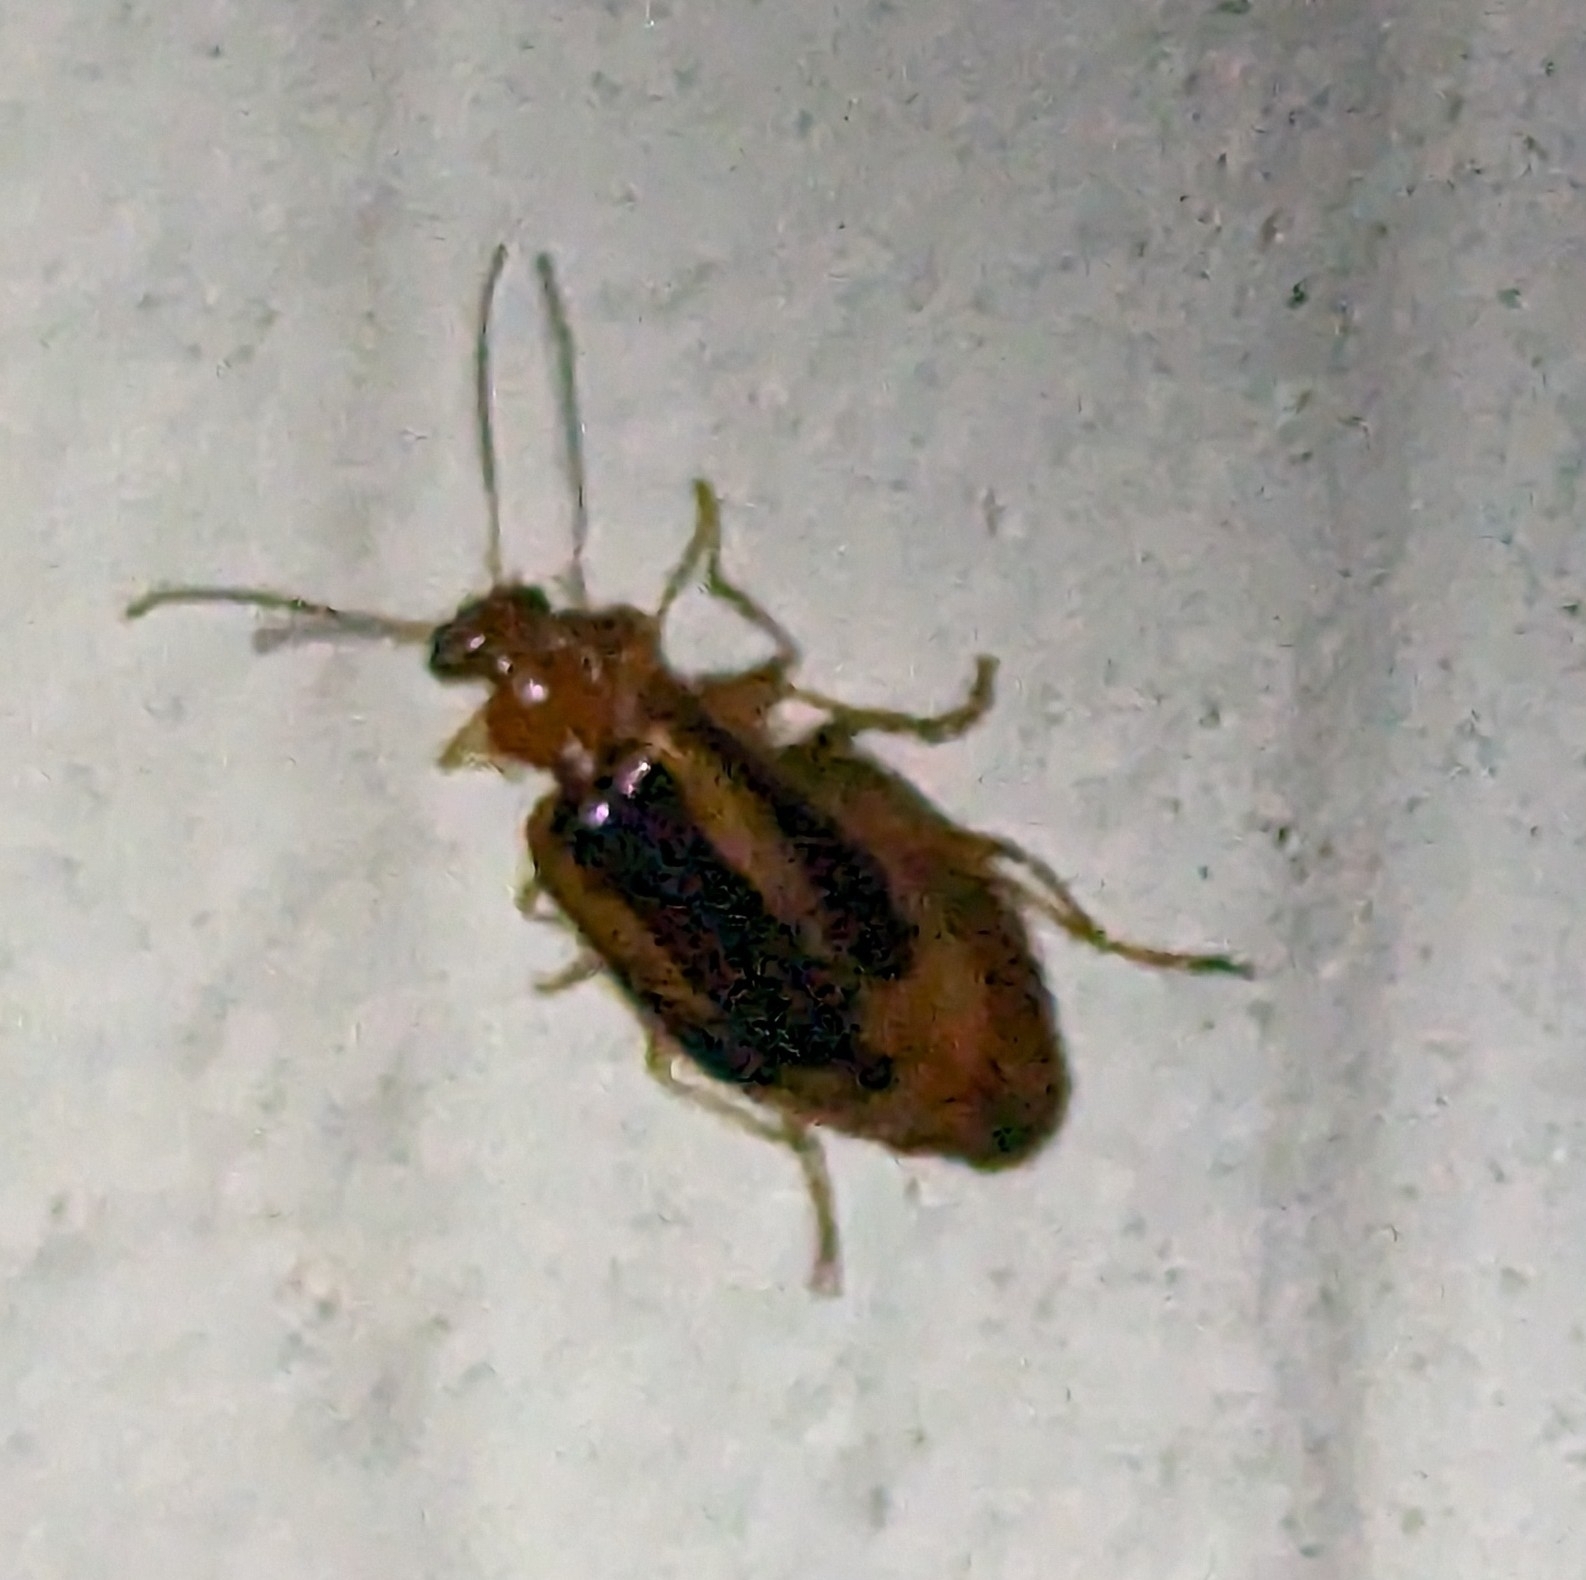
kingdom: Animalia
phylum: Arthropoda
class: Insecta
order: Coleoptera
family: Carabidae
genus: Lebia
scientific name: Lebia solea
